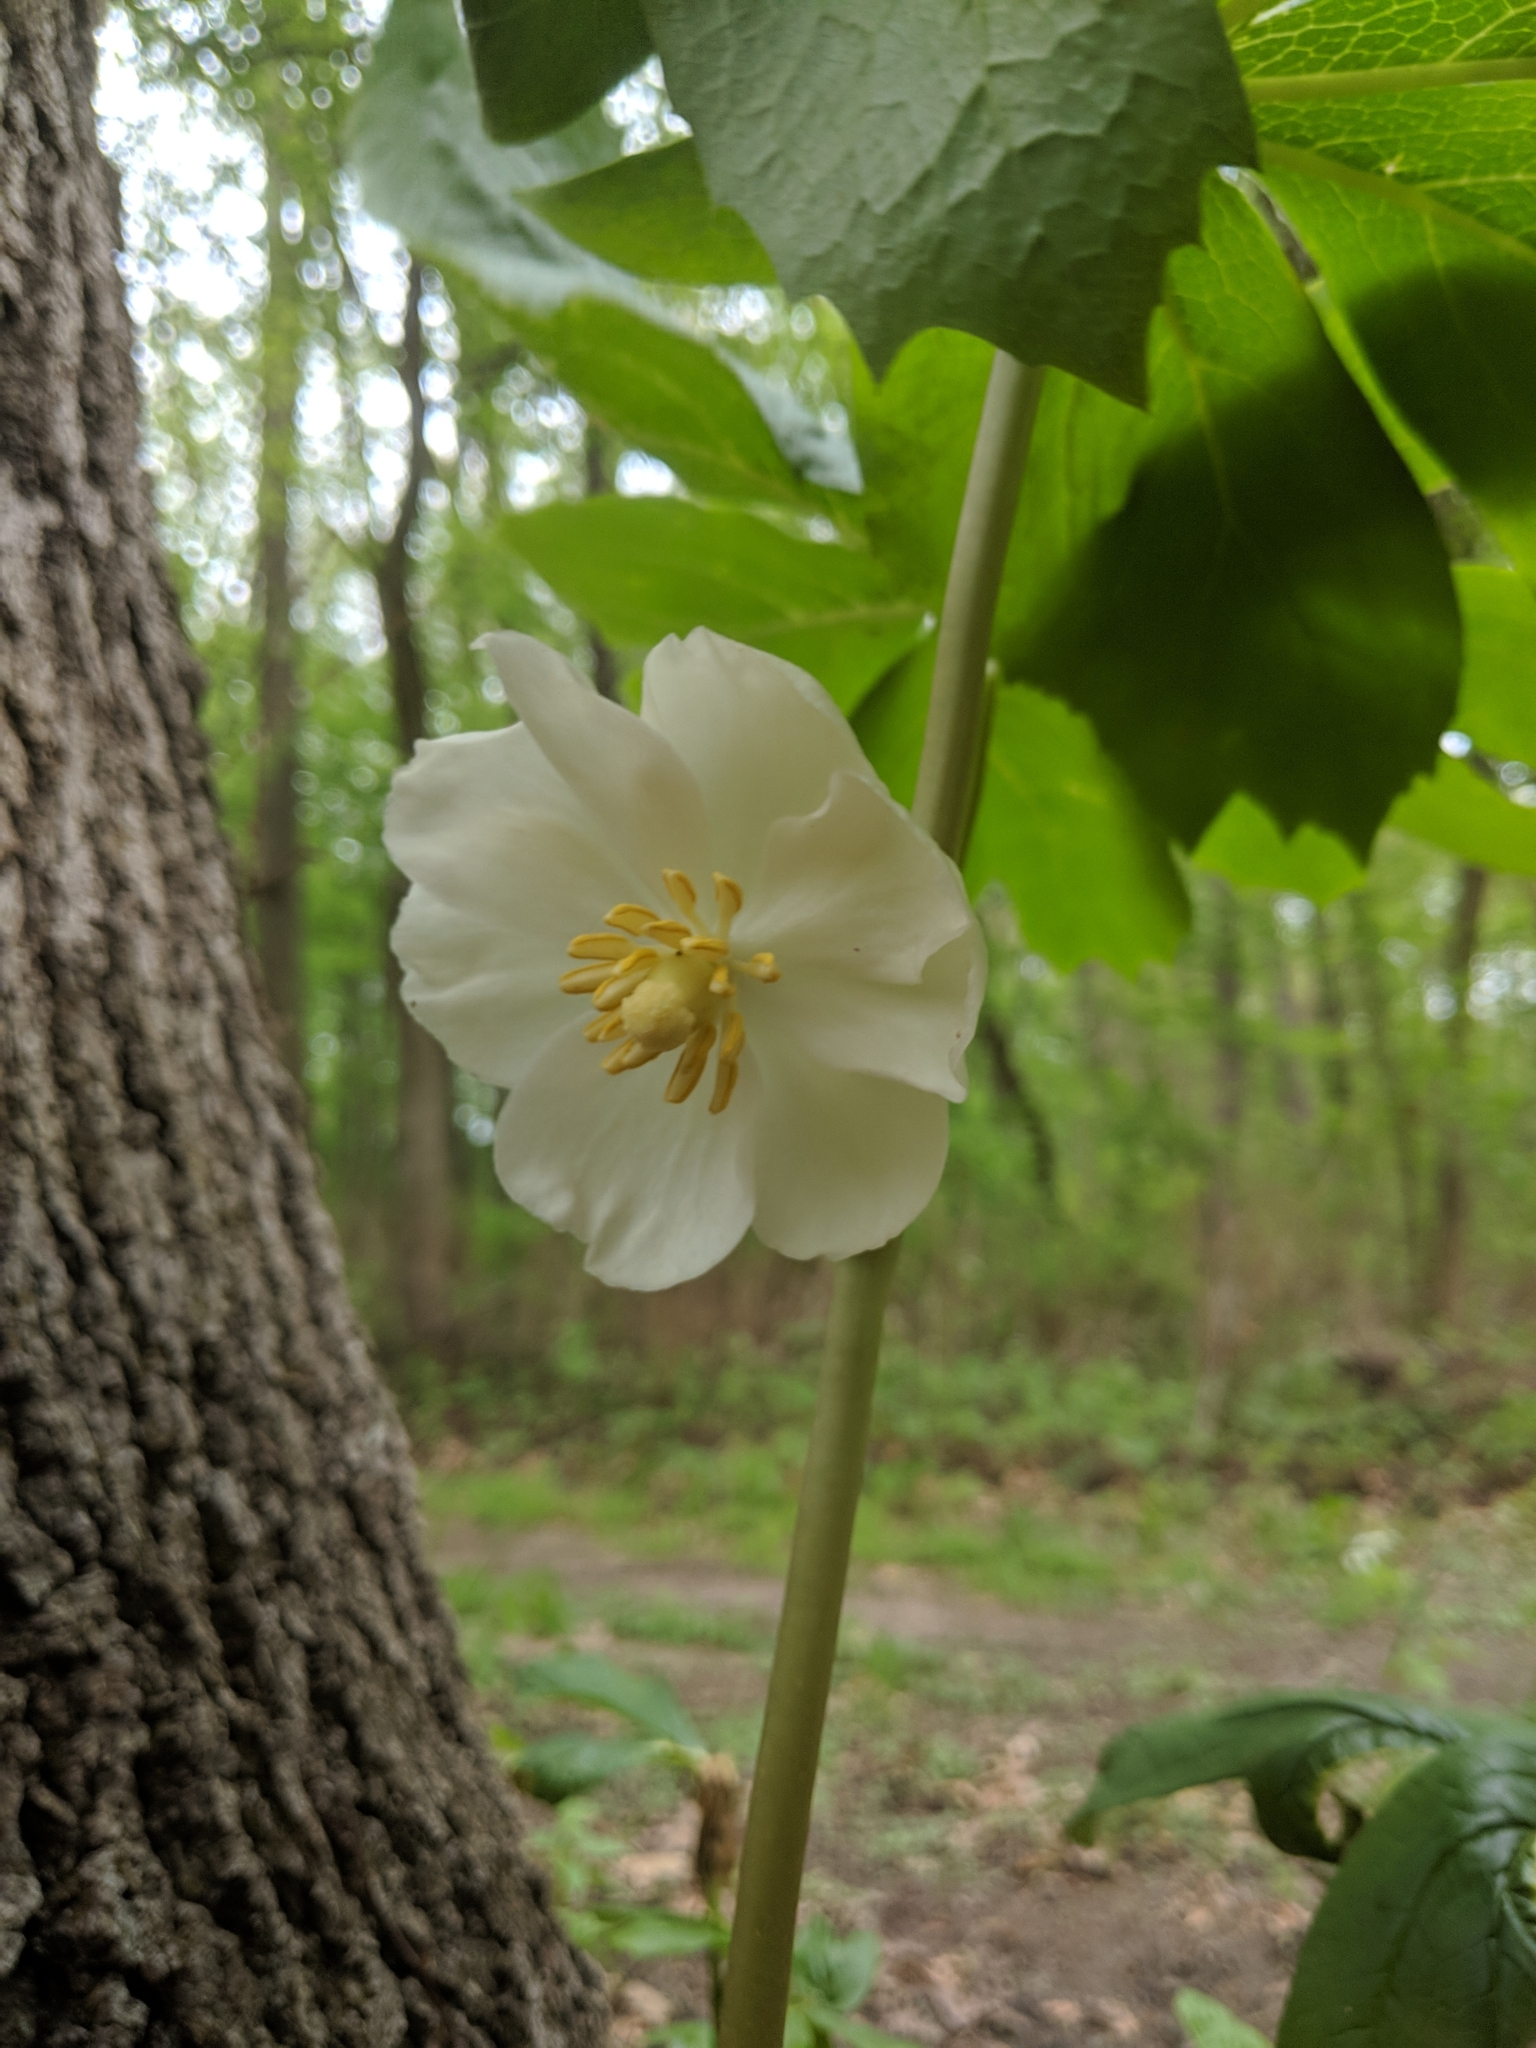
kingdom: Plantae
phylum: Tracheophyta
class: Magnoliopsida
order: Ranunculales
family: Berberidaceae
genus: Podophyllum
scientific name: Podophyllum peltatum
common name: Wild mandrake
